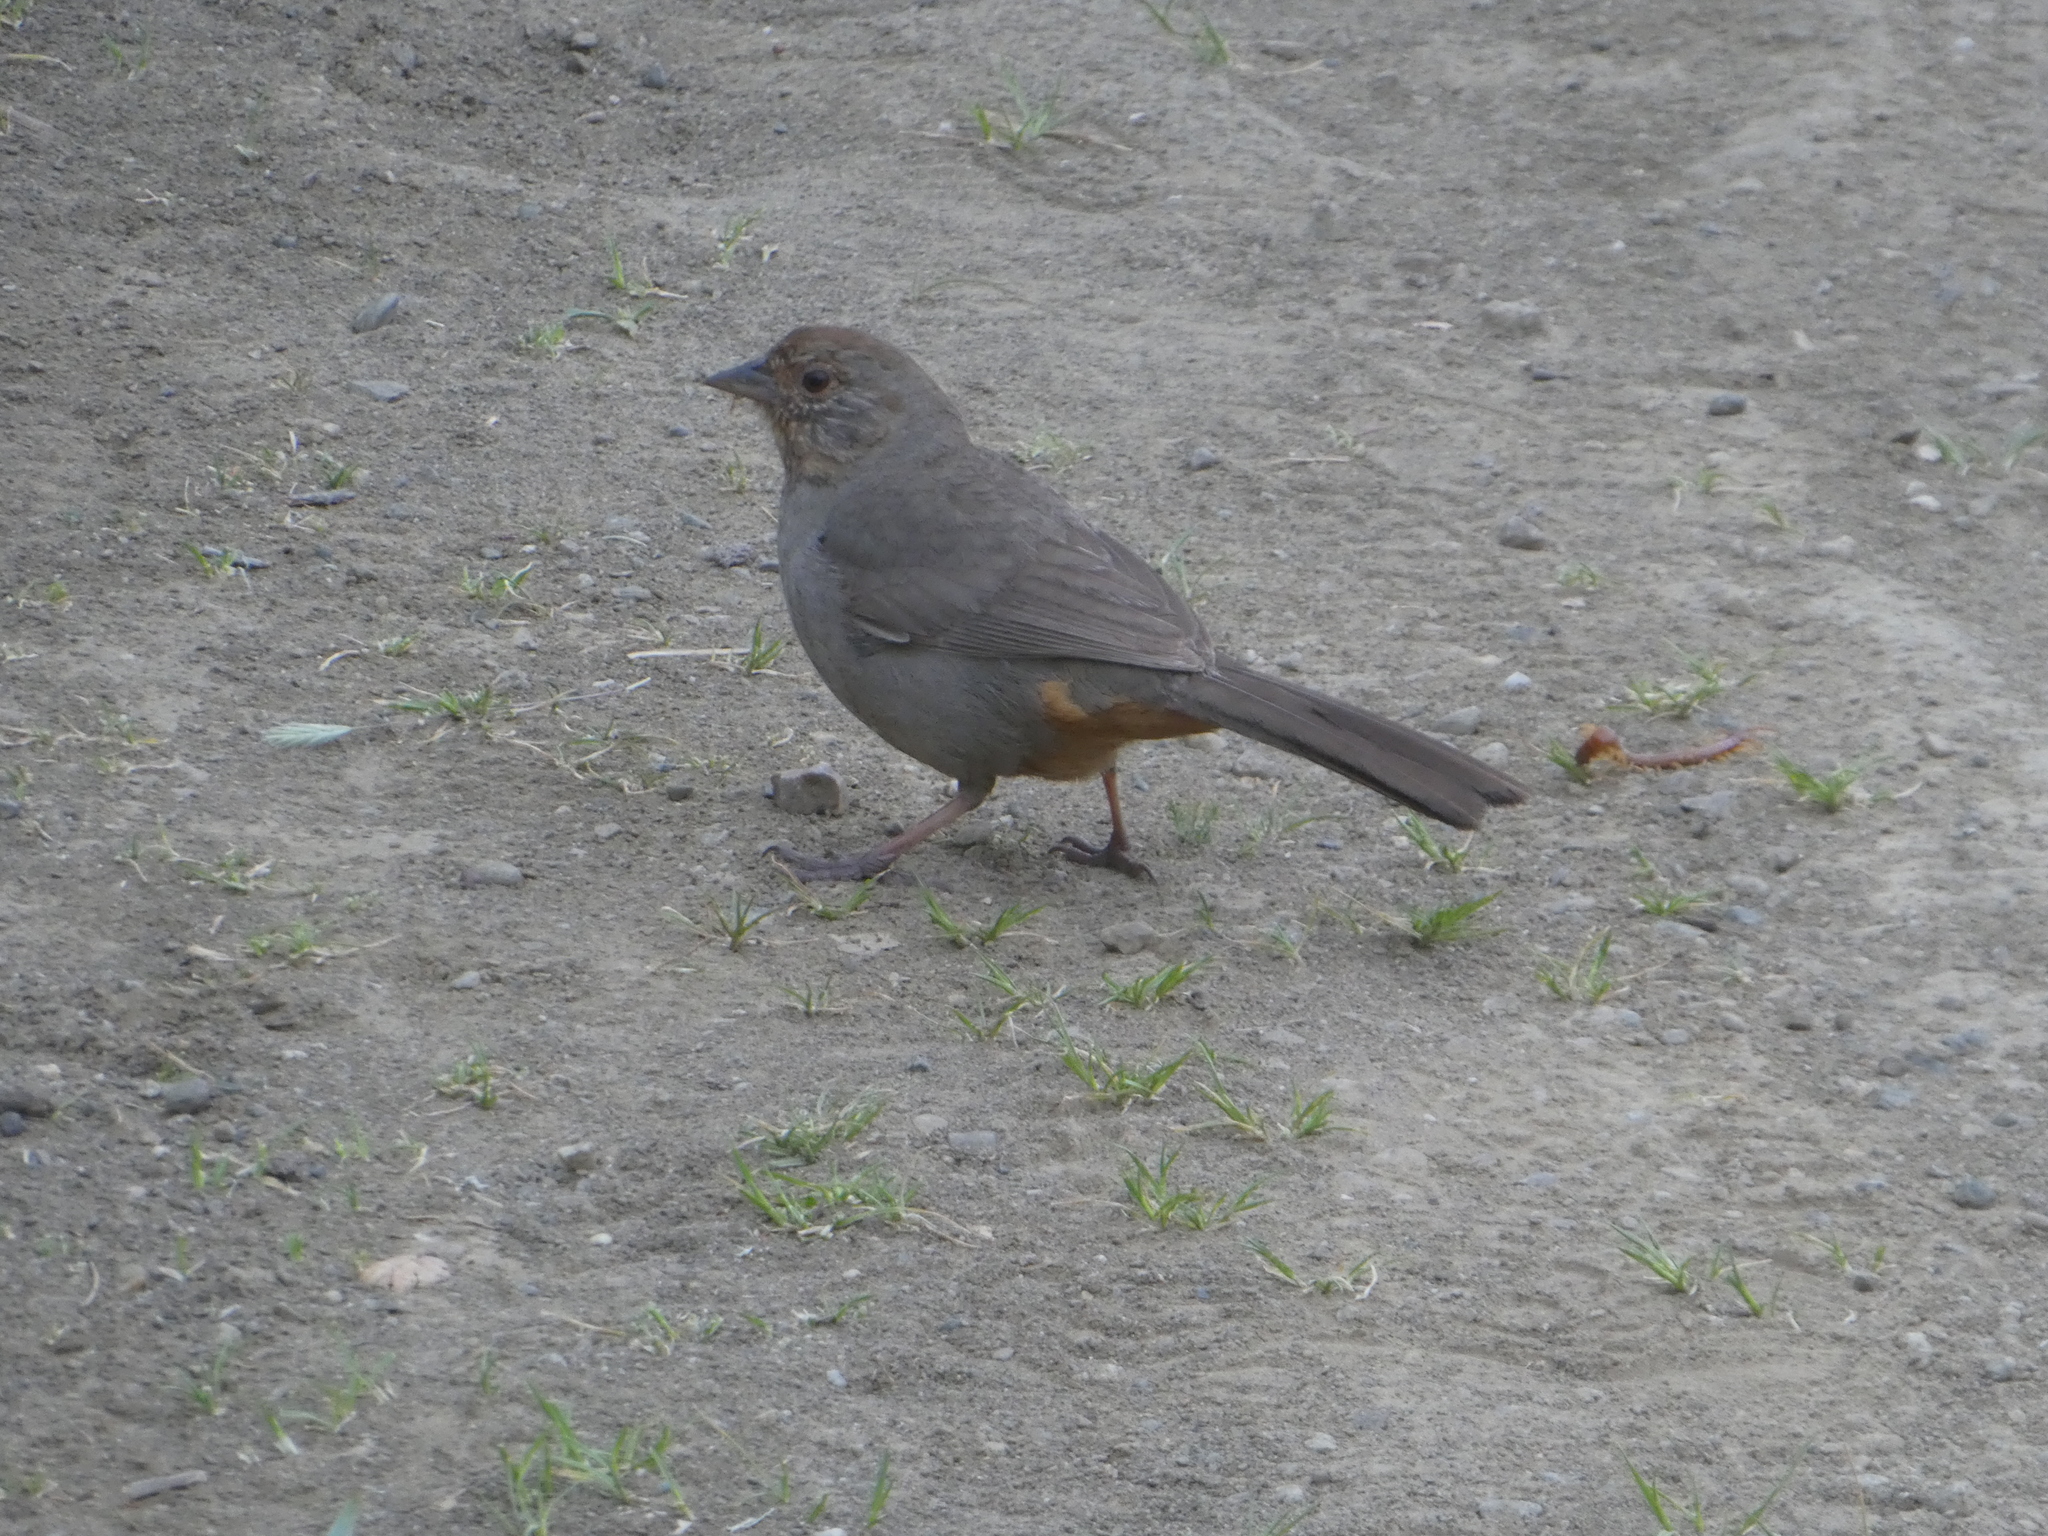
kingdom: Animalia
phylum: Chordata
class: Aves
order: Passeriformes
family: Passerellidae
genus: Melozone
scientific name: Melozone crissalis
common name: California towhee
